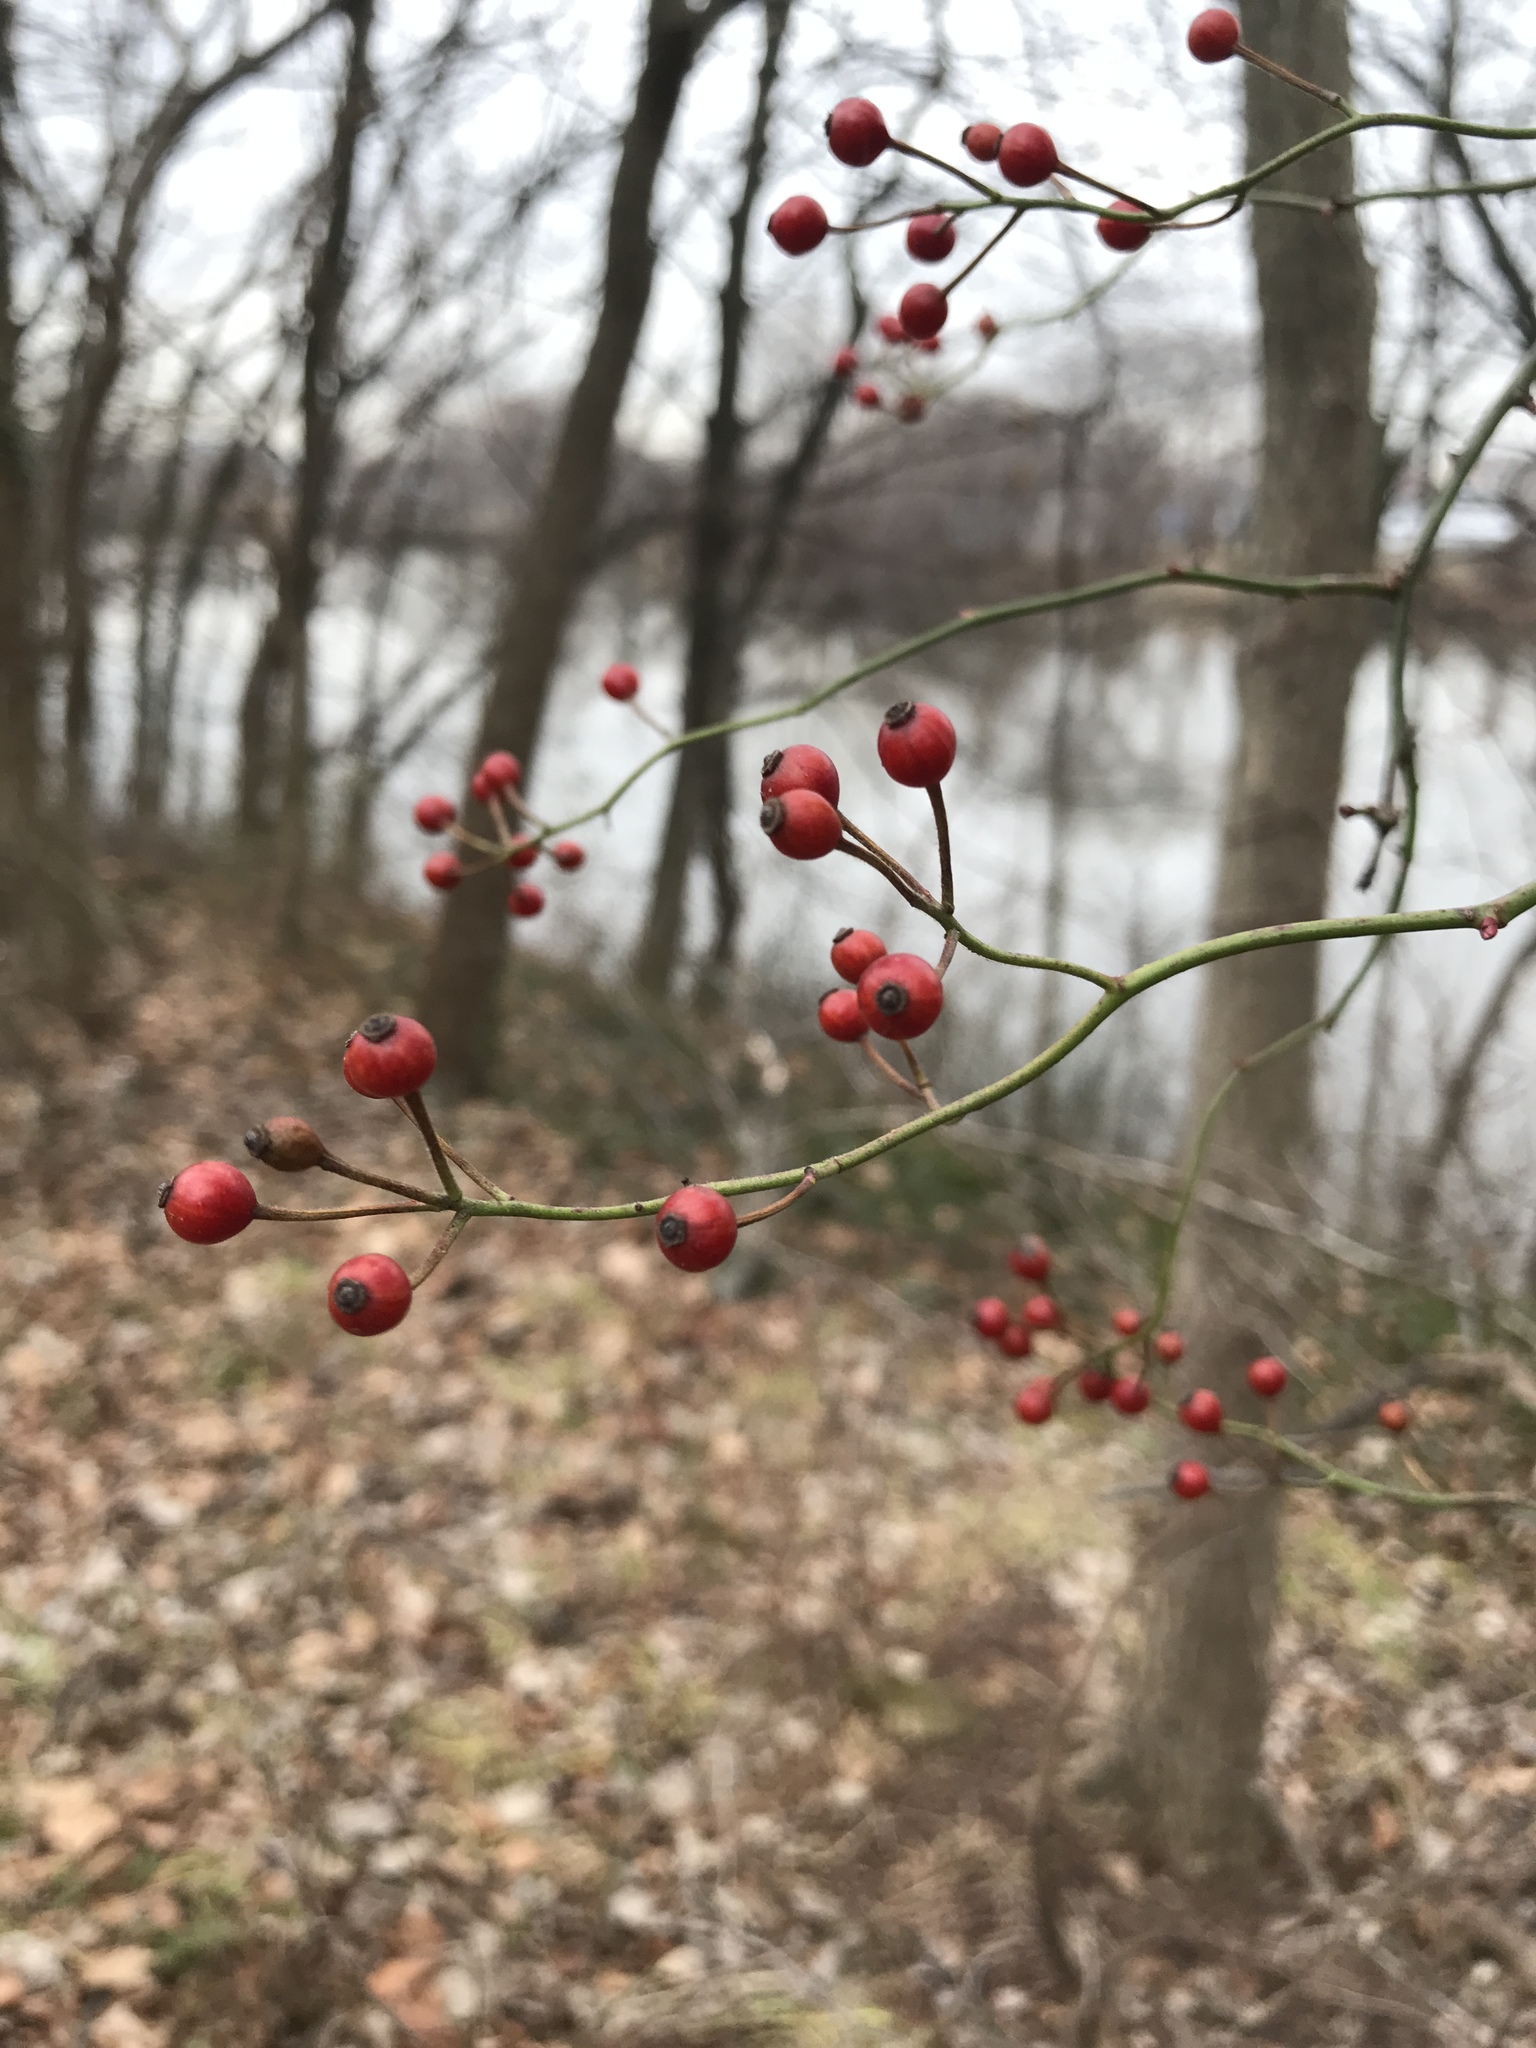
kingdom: Plantae
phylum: Tracheophyta
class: Magnoliopsida
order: Rosales
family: Rosaceae
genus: Rosa
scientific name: Rosa multiflora
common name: Multiflora rose
